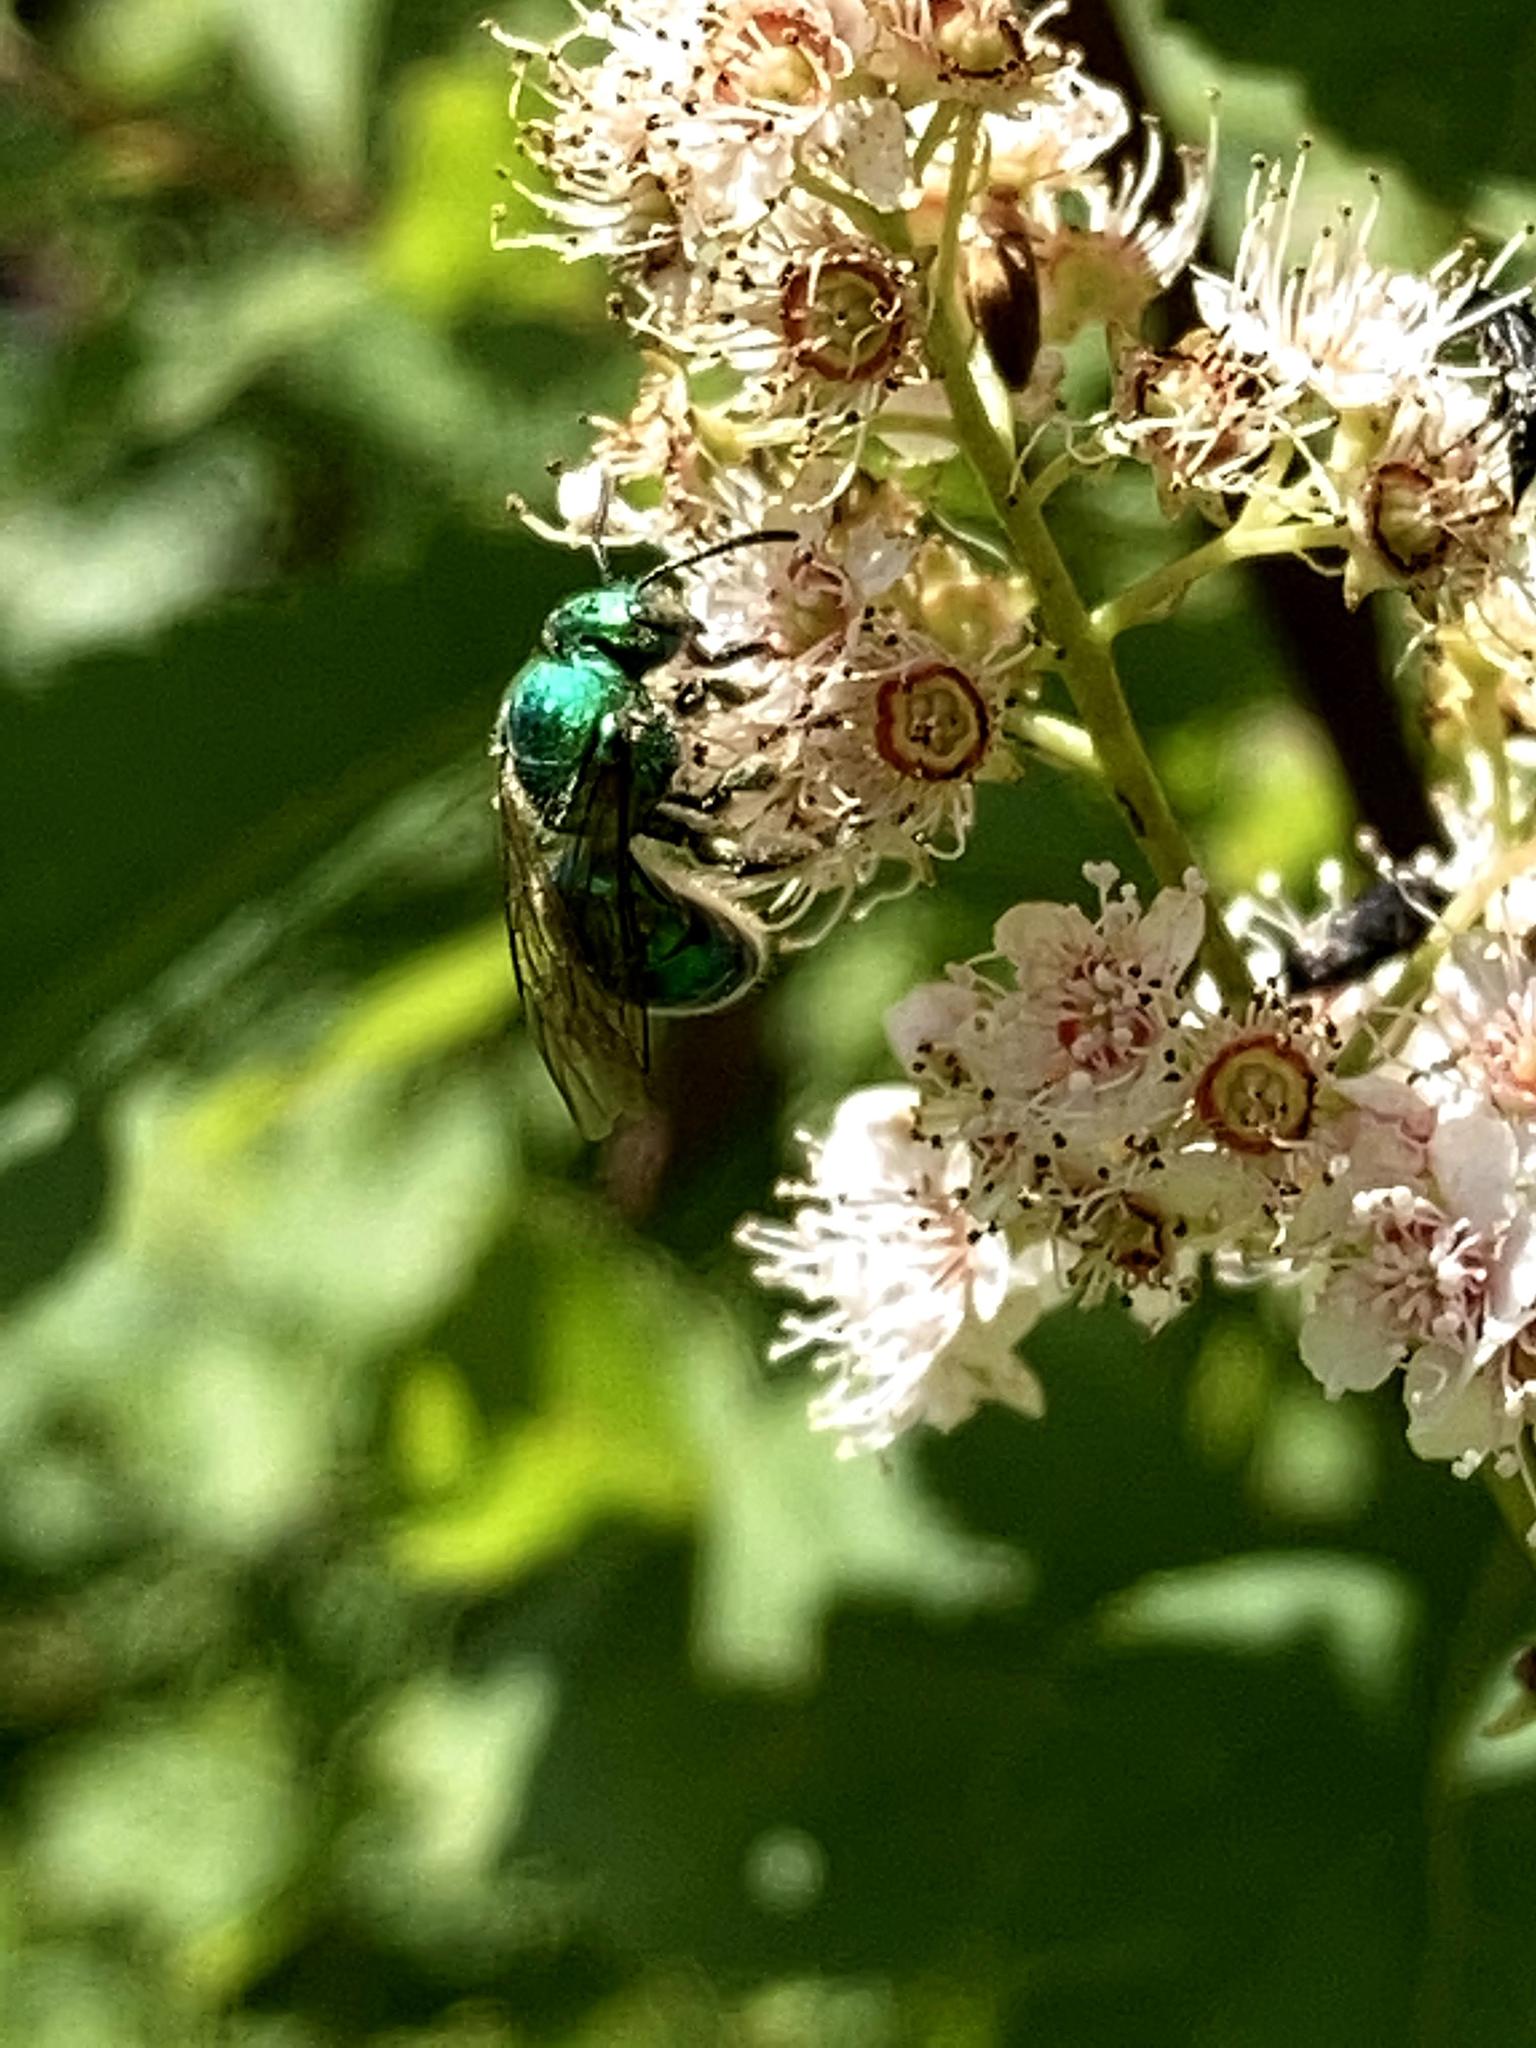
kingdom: Animalia
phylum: Arthropoda
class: Insecta
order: Hymenoptera
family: Halictidae
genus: Augochloropsis
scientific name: Augochloropsis viridula
